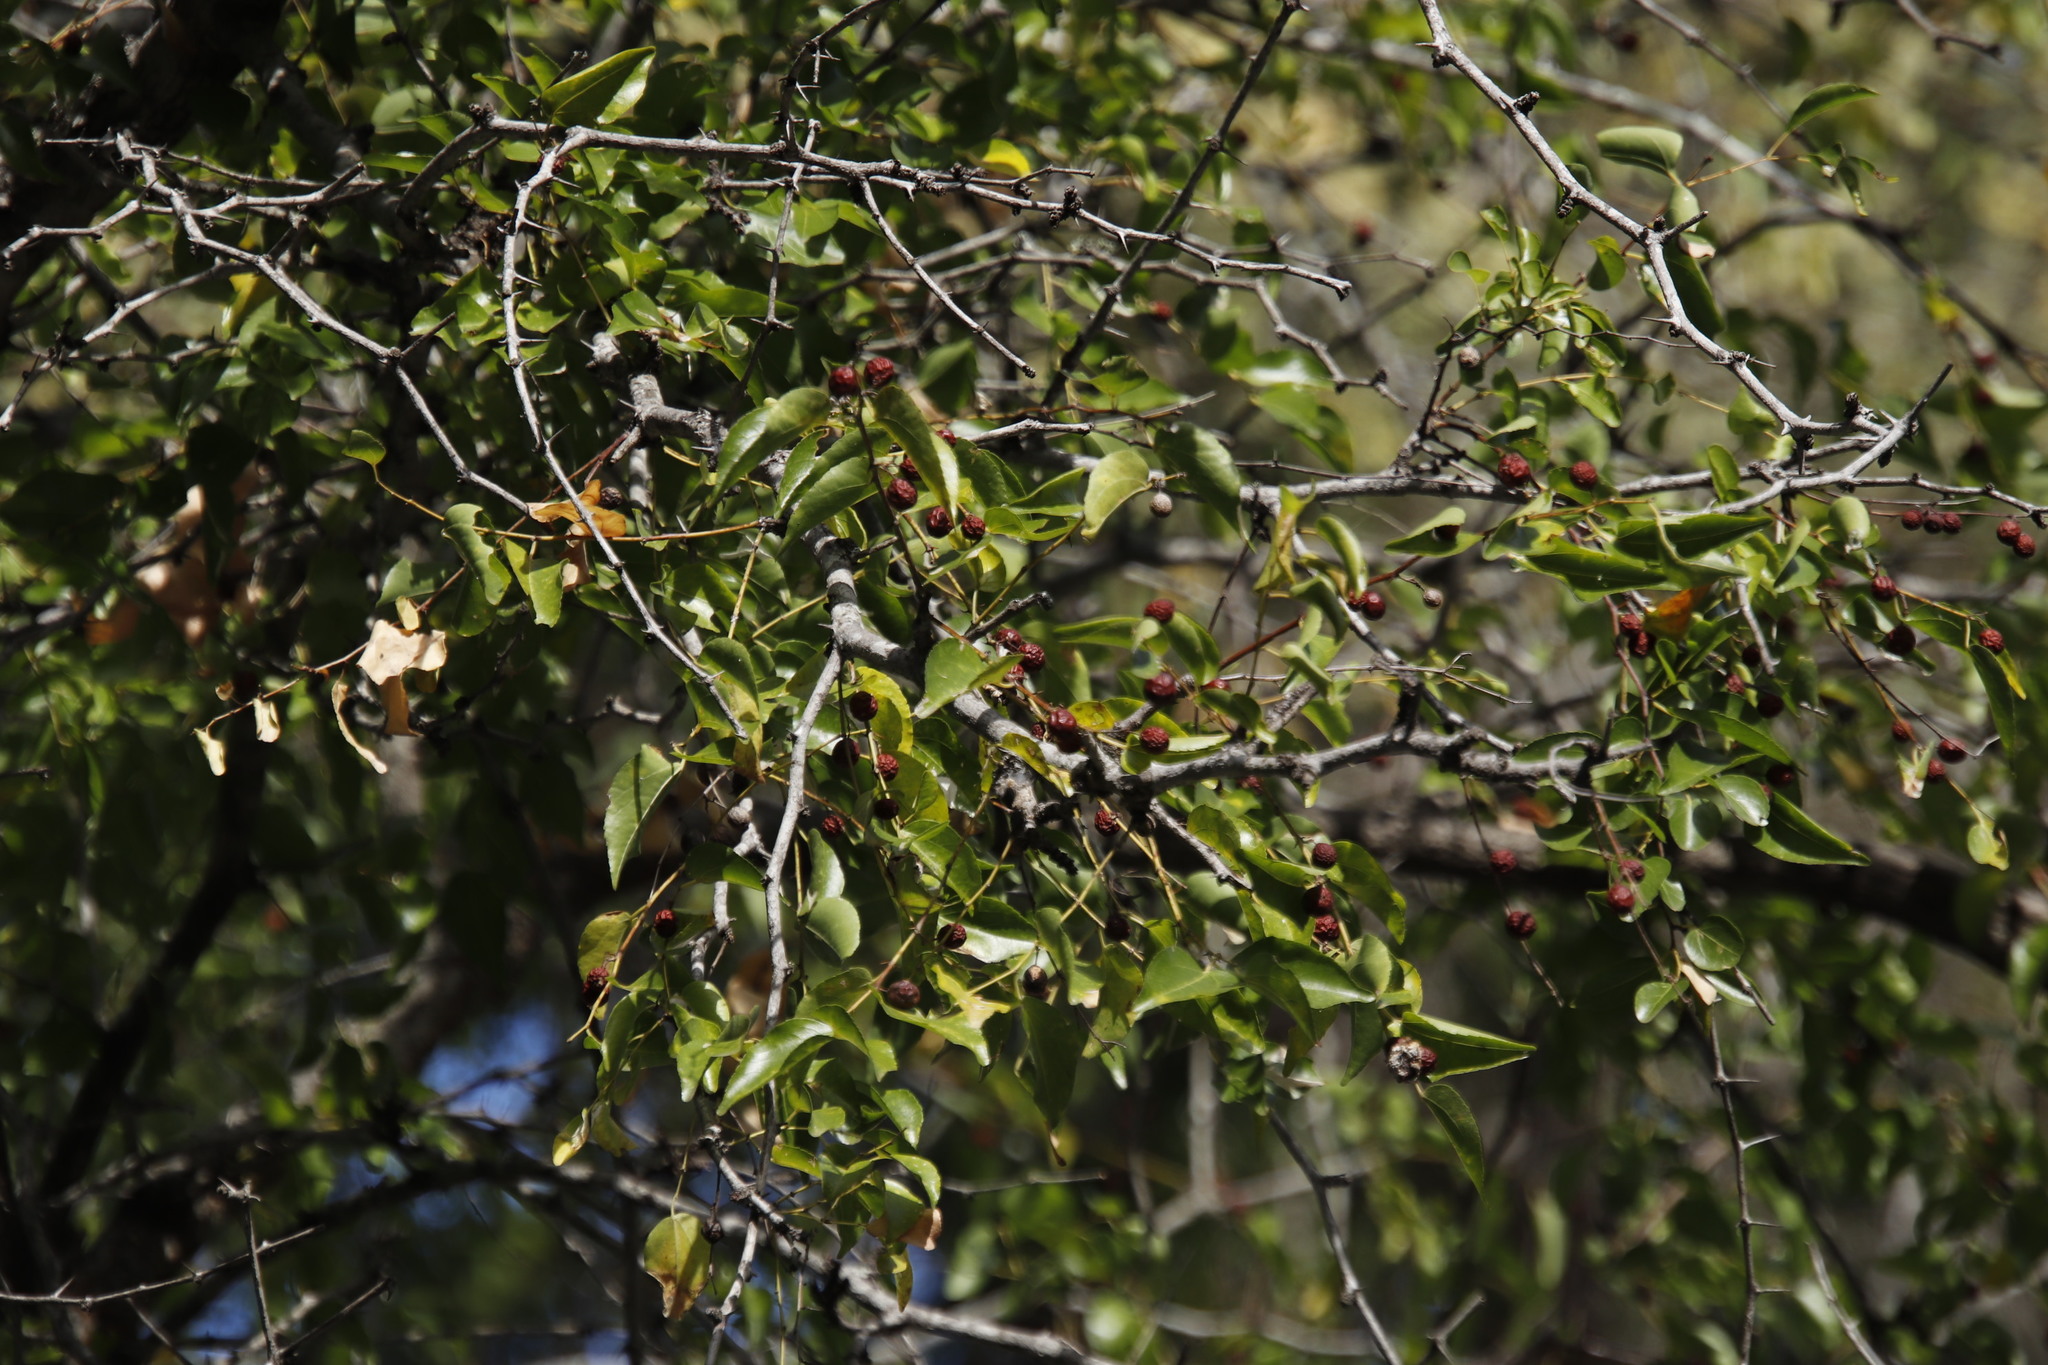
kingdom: Plantae
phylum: Tracheophyta
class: Magnoliopsida
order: Rosales
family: Rhamnaceae
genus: Ziziphus
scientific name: Ziziphus mucronata
